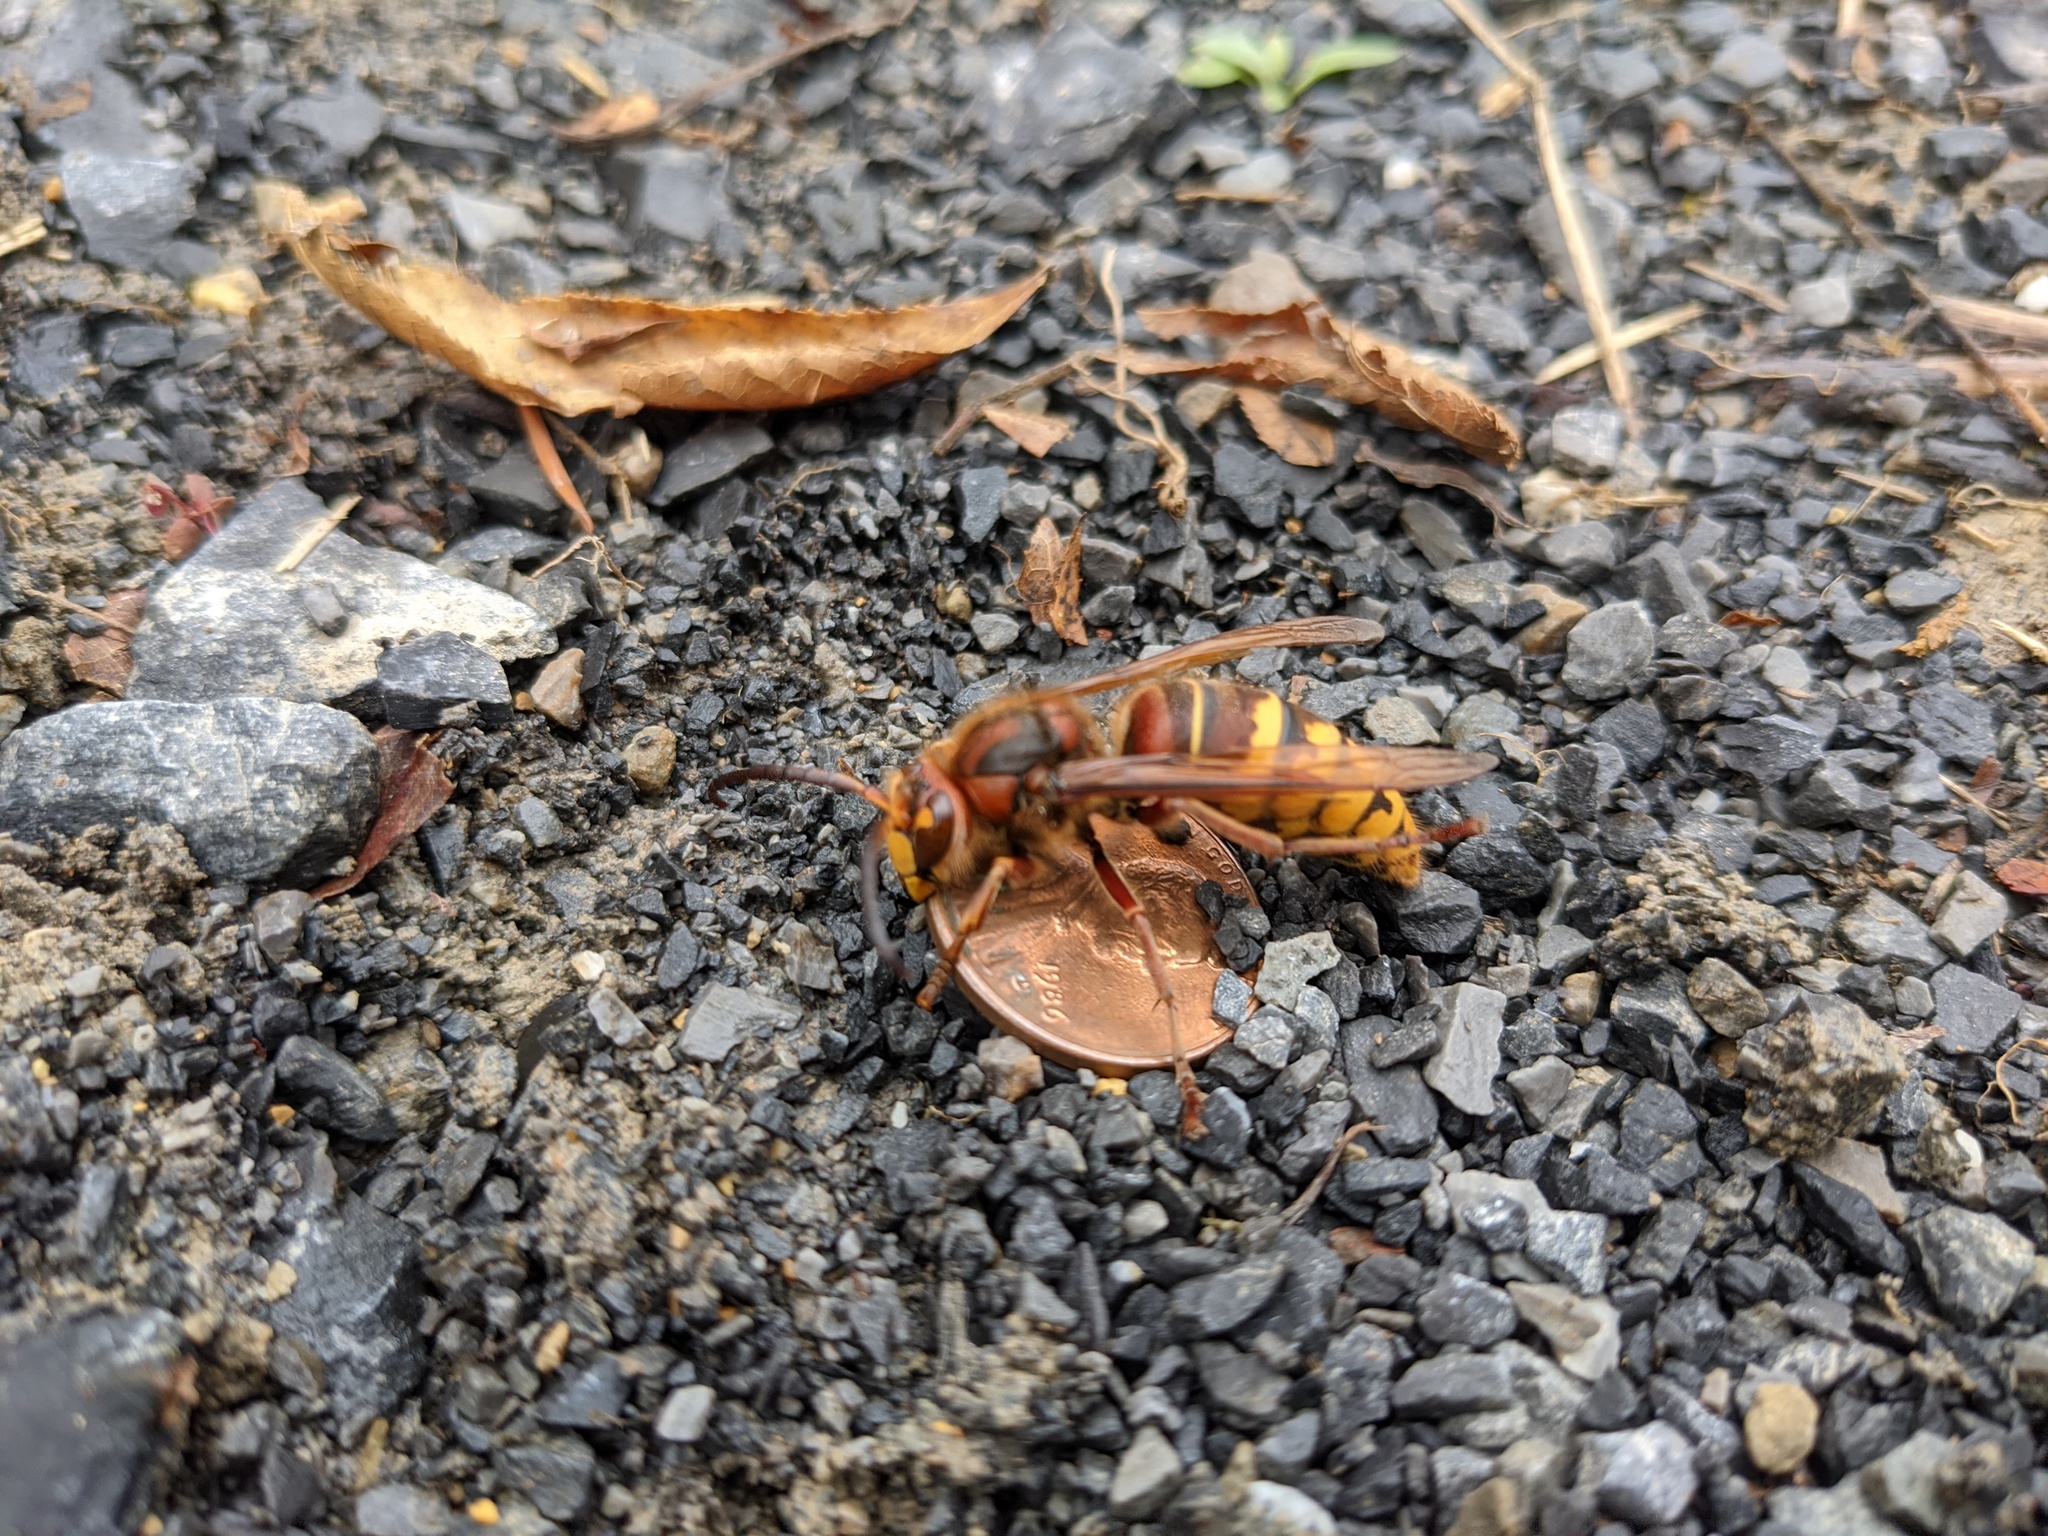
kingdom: Animalia
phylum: Arthropoda
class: Insecta
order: Hymenoptera
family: Vespidae
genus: Vespa
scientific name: Vespa crabro
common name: Hornet
